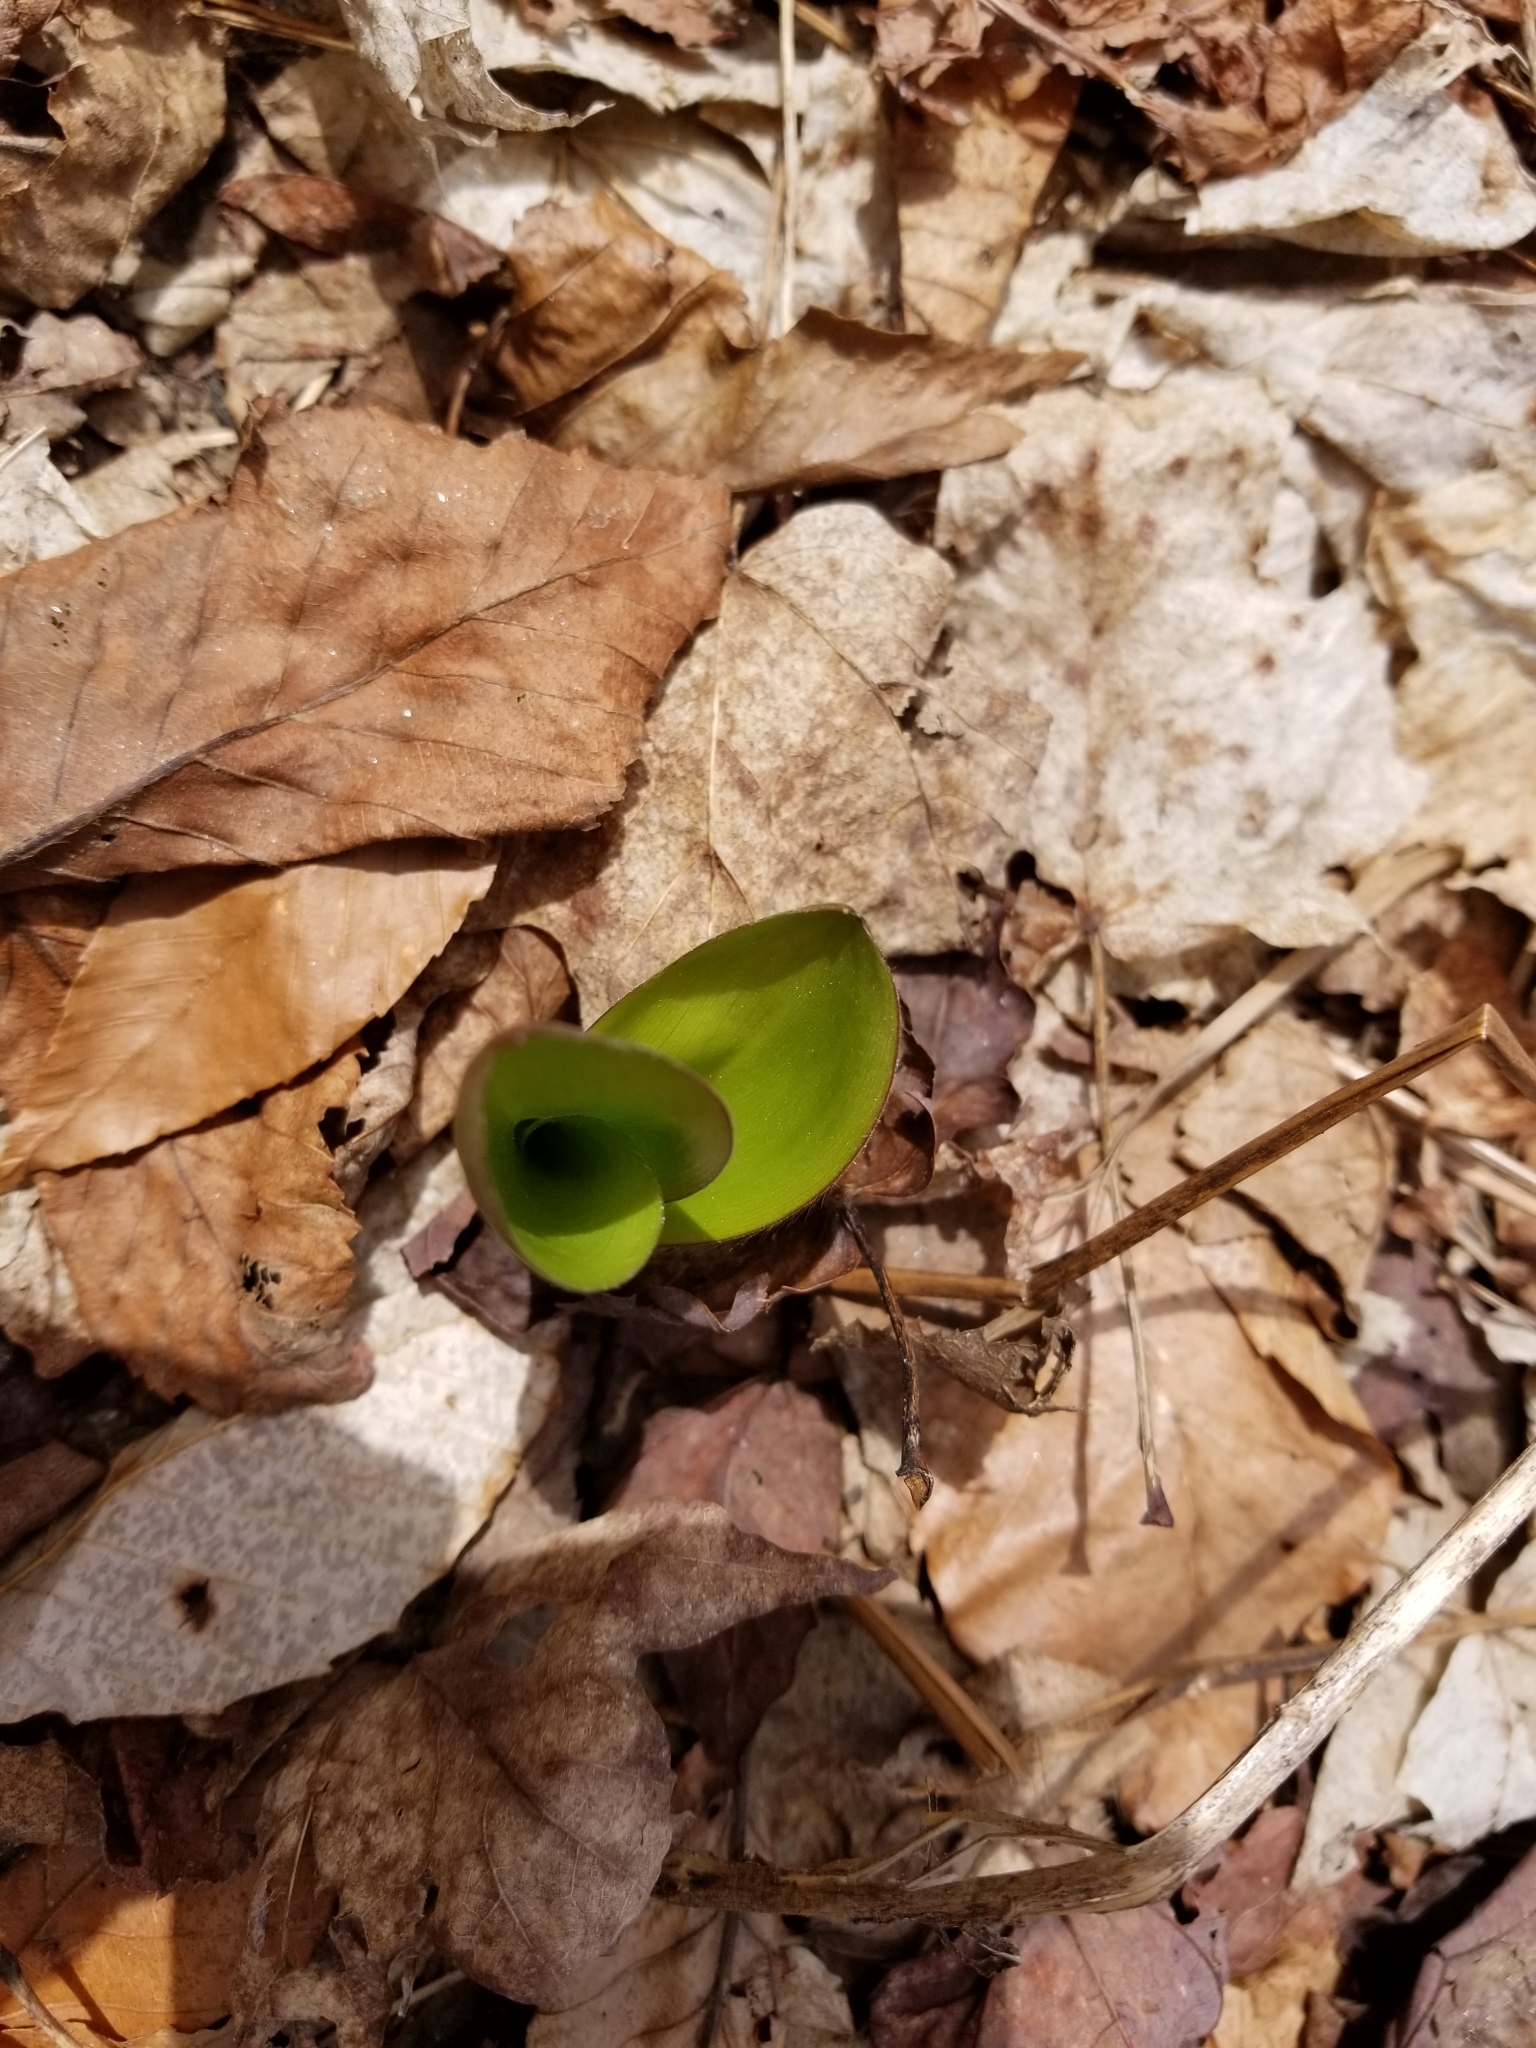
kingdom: Plantae
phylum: Tracheophyta
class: Liliopsida
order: Liliales
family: Liliaceae
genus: Clintonia
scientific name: Clintonia borealis
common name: Yellow clintonia
